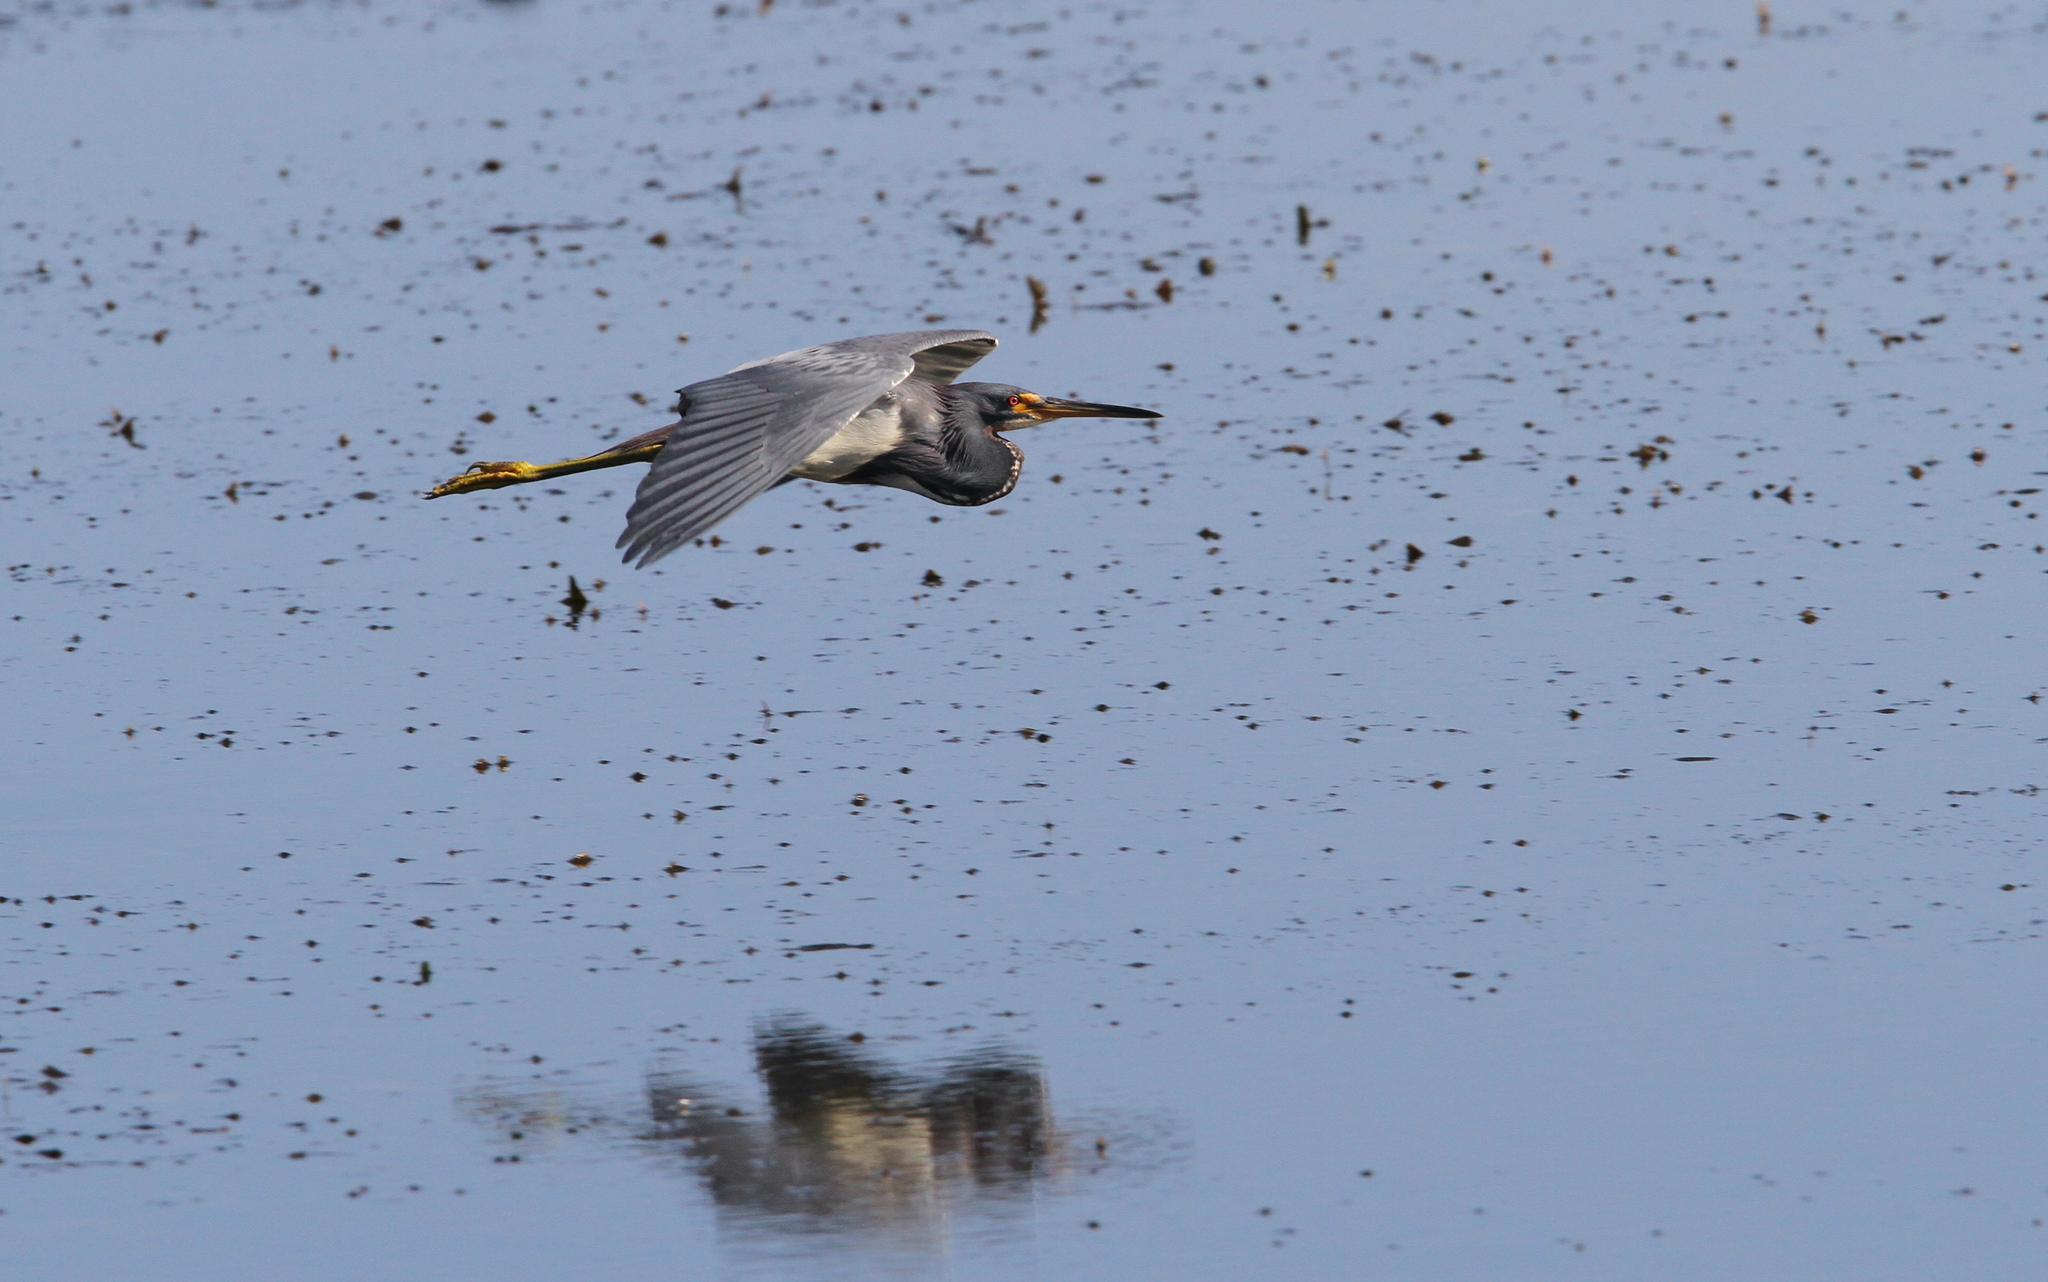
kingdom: Animalia
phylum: Chordata
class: Aves
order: Pelecaniformes
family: Ardeidae
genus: Egretta
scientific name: Egretta tricolor
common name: Tricolored heron
